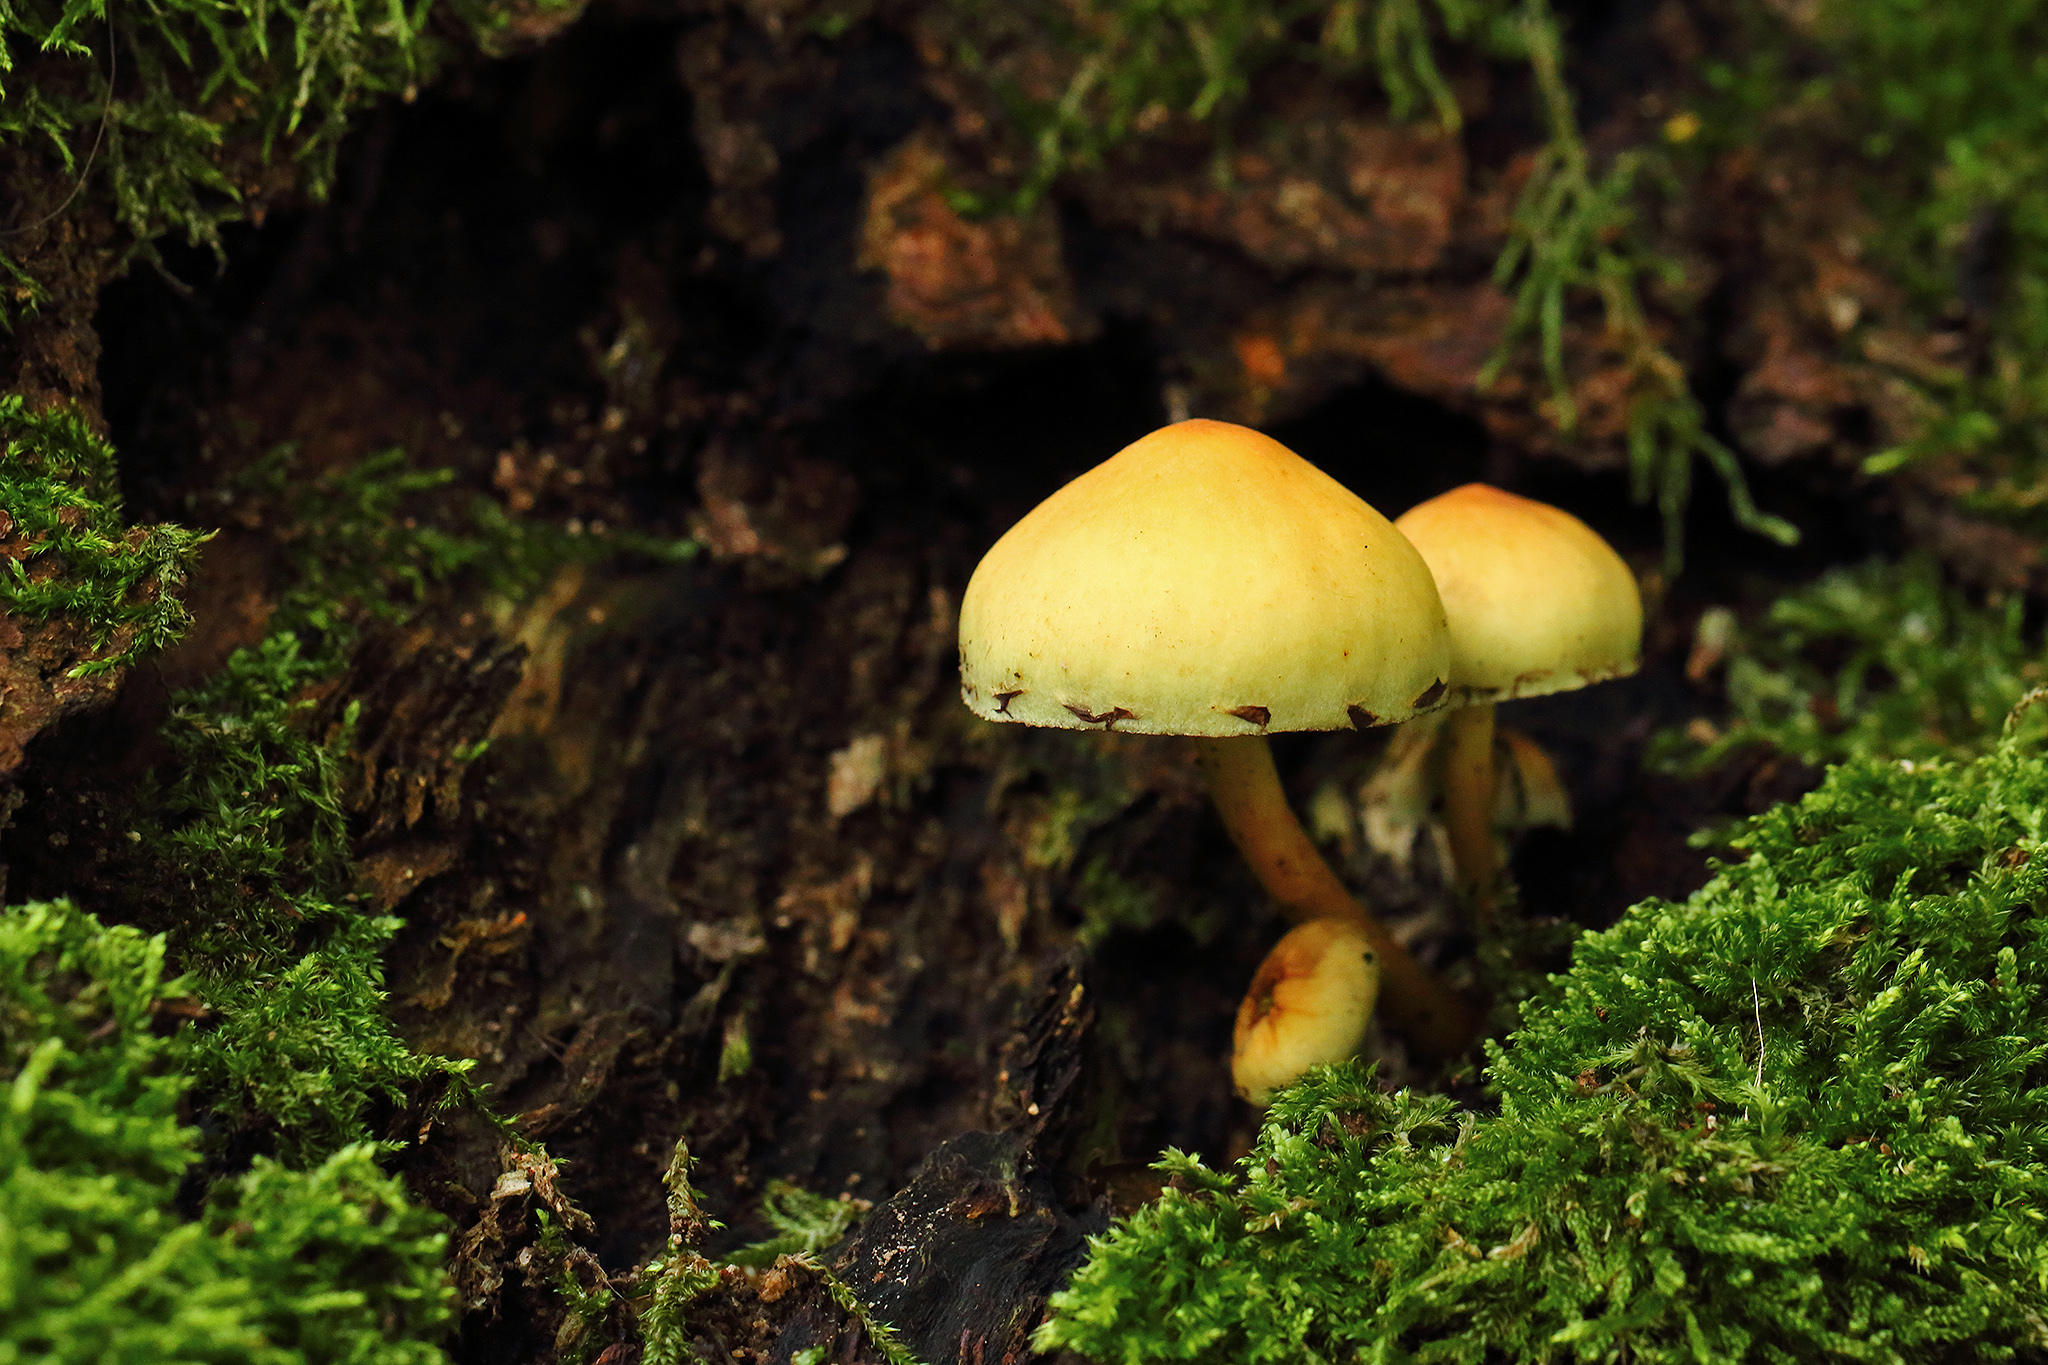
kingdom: Fungi
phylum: Basidiomycota
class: Agaricomycetes
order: Agaricales
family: Strophariaceae
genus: Hypholoma
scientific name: Hypholoma fasciculare
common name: Sulphur tuft
